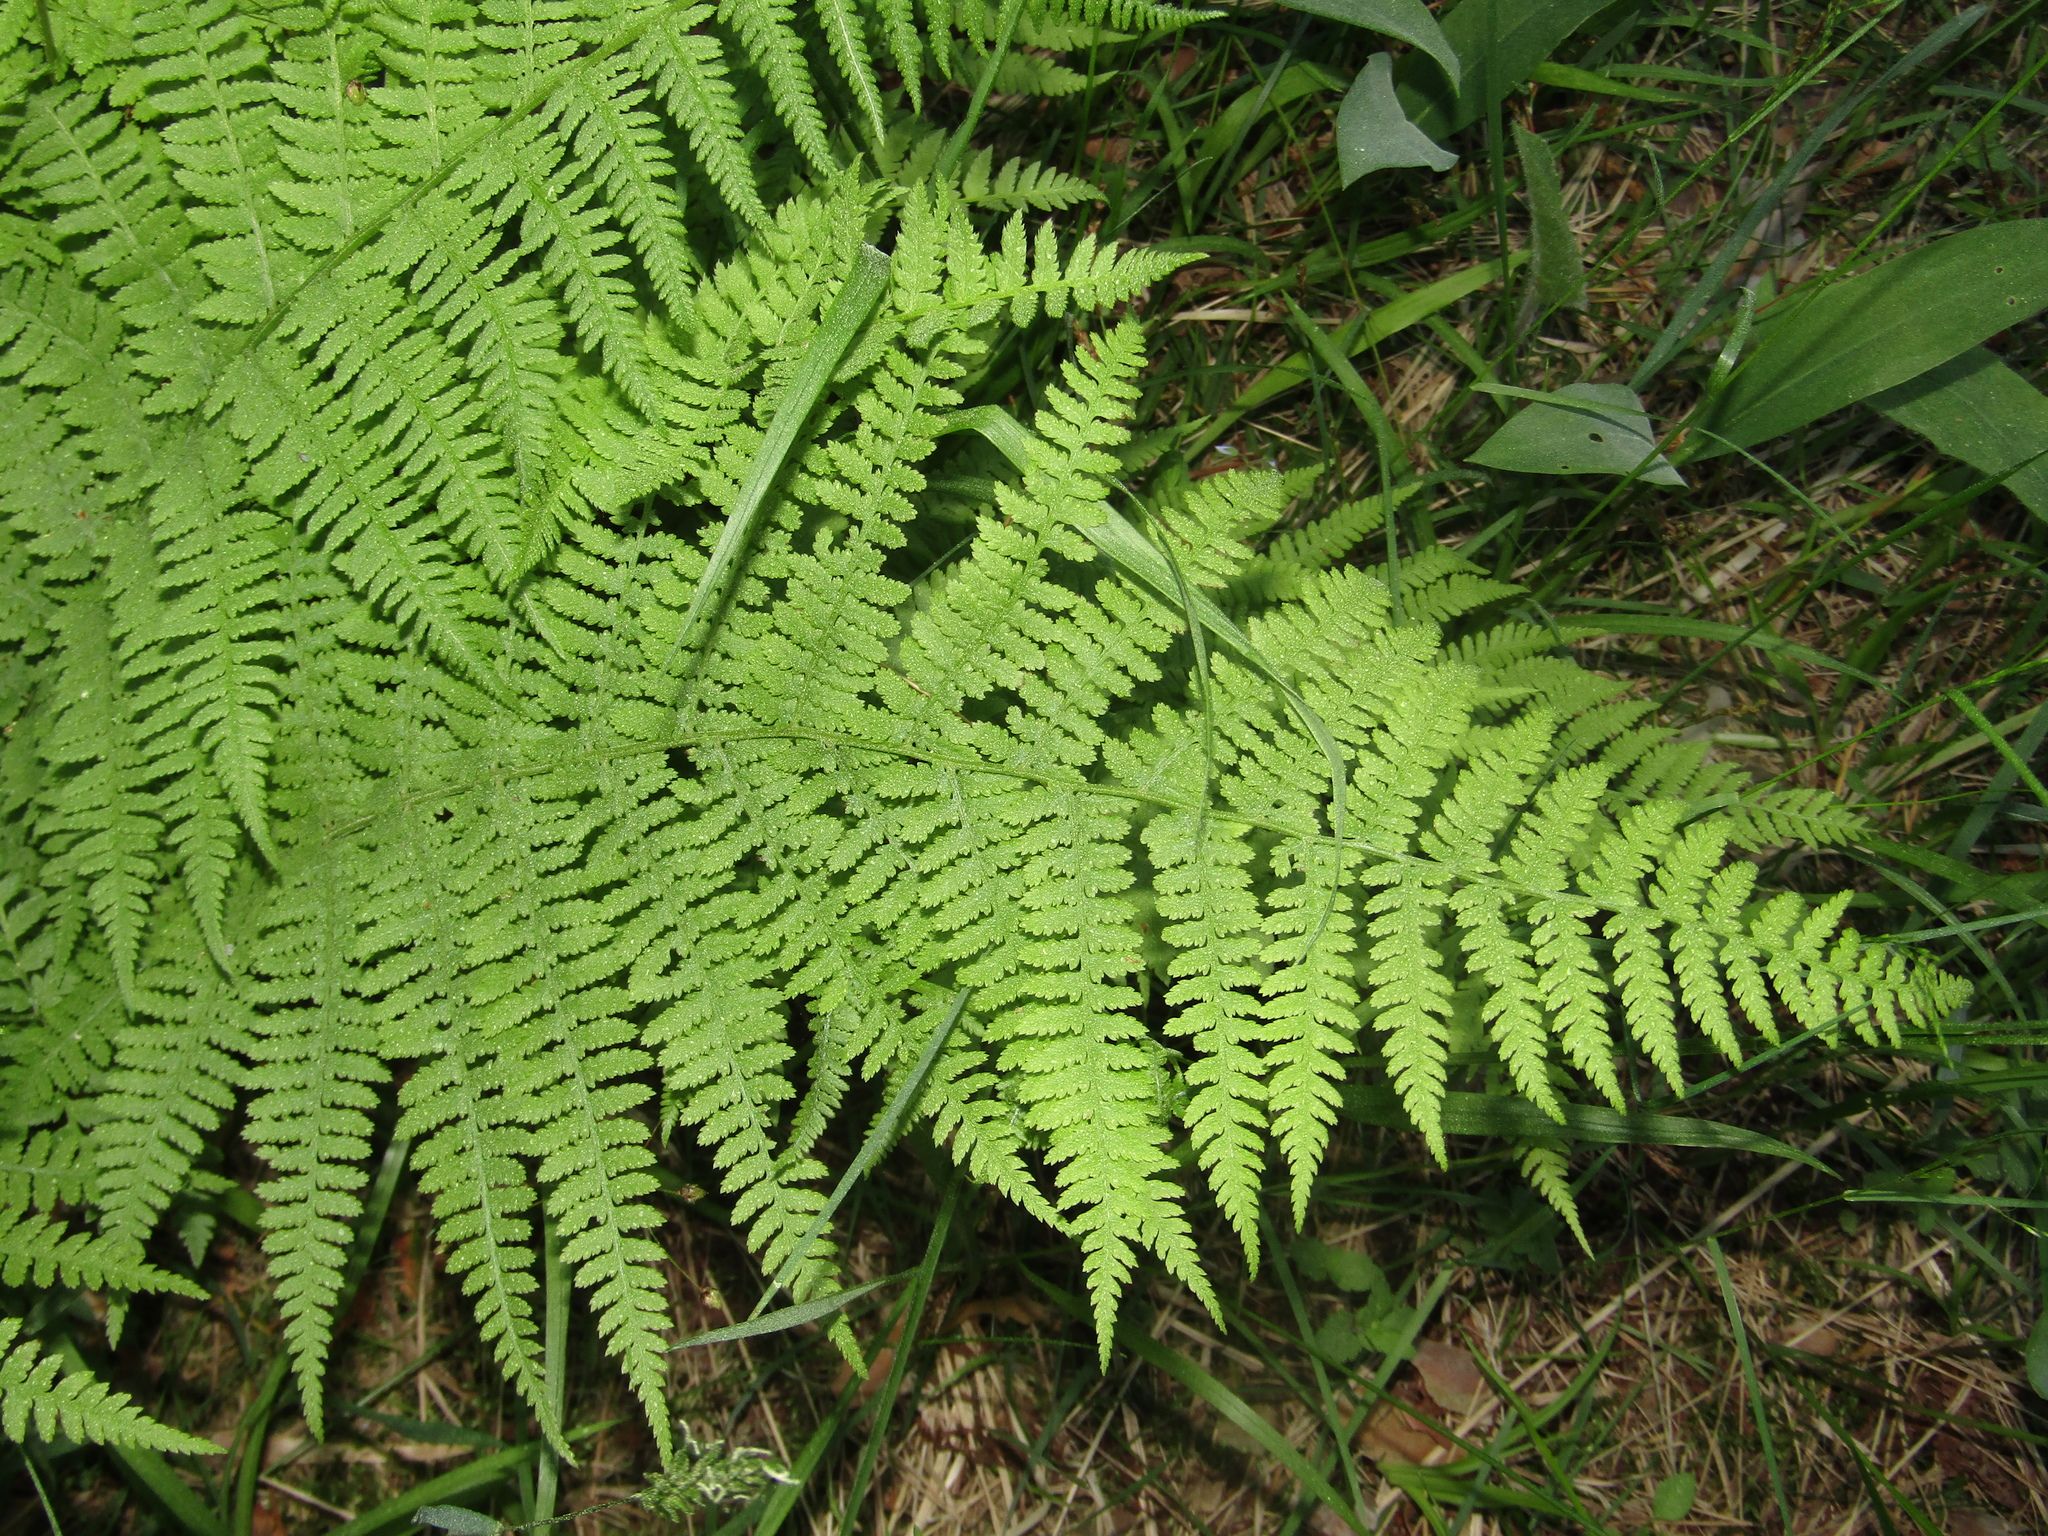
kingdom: Plantae
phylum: Tracheophyta
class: Polypodiopsida
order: Polypodiales
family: Athyriaceae
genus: Athyrium
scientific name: Athyrium filix-femina
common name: Lady fern
